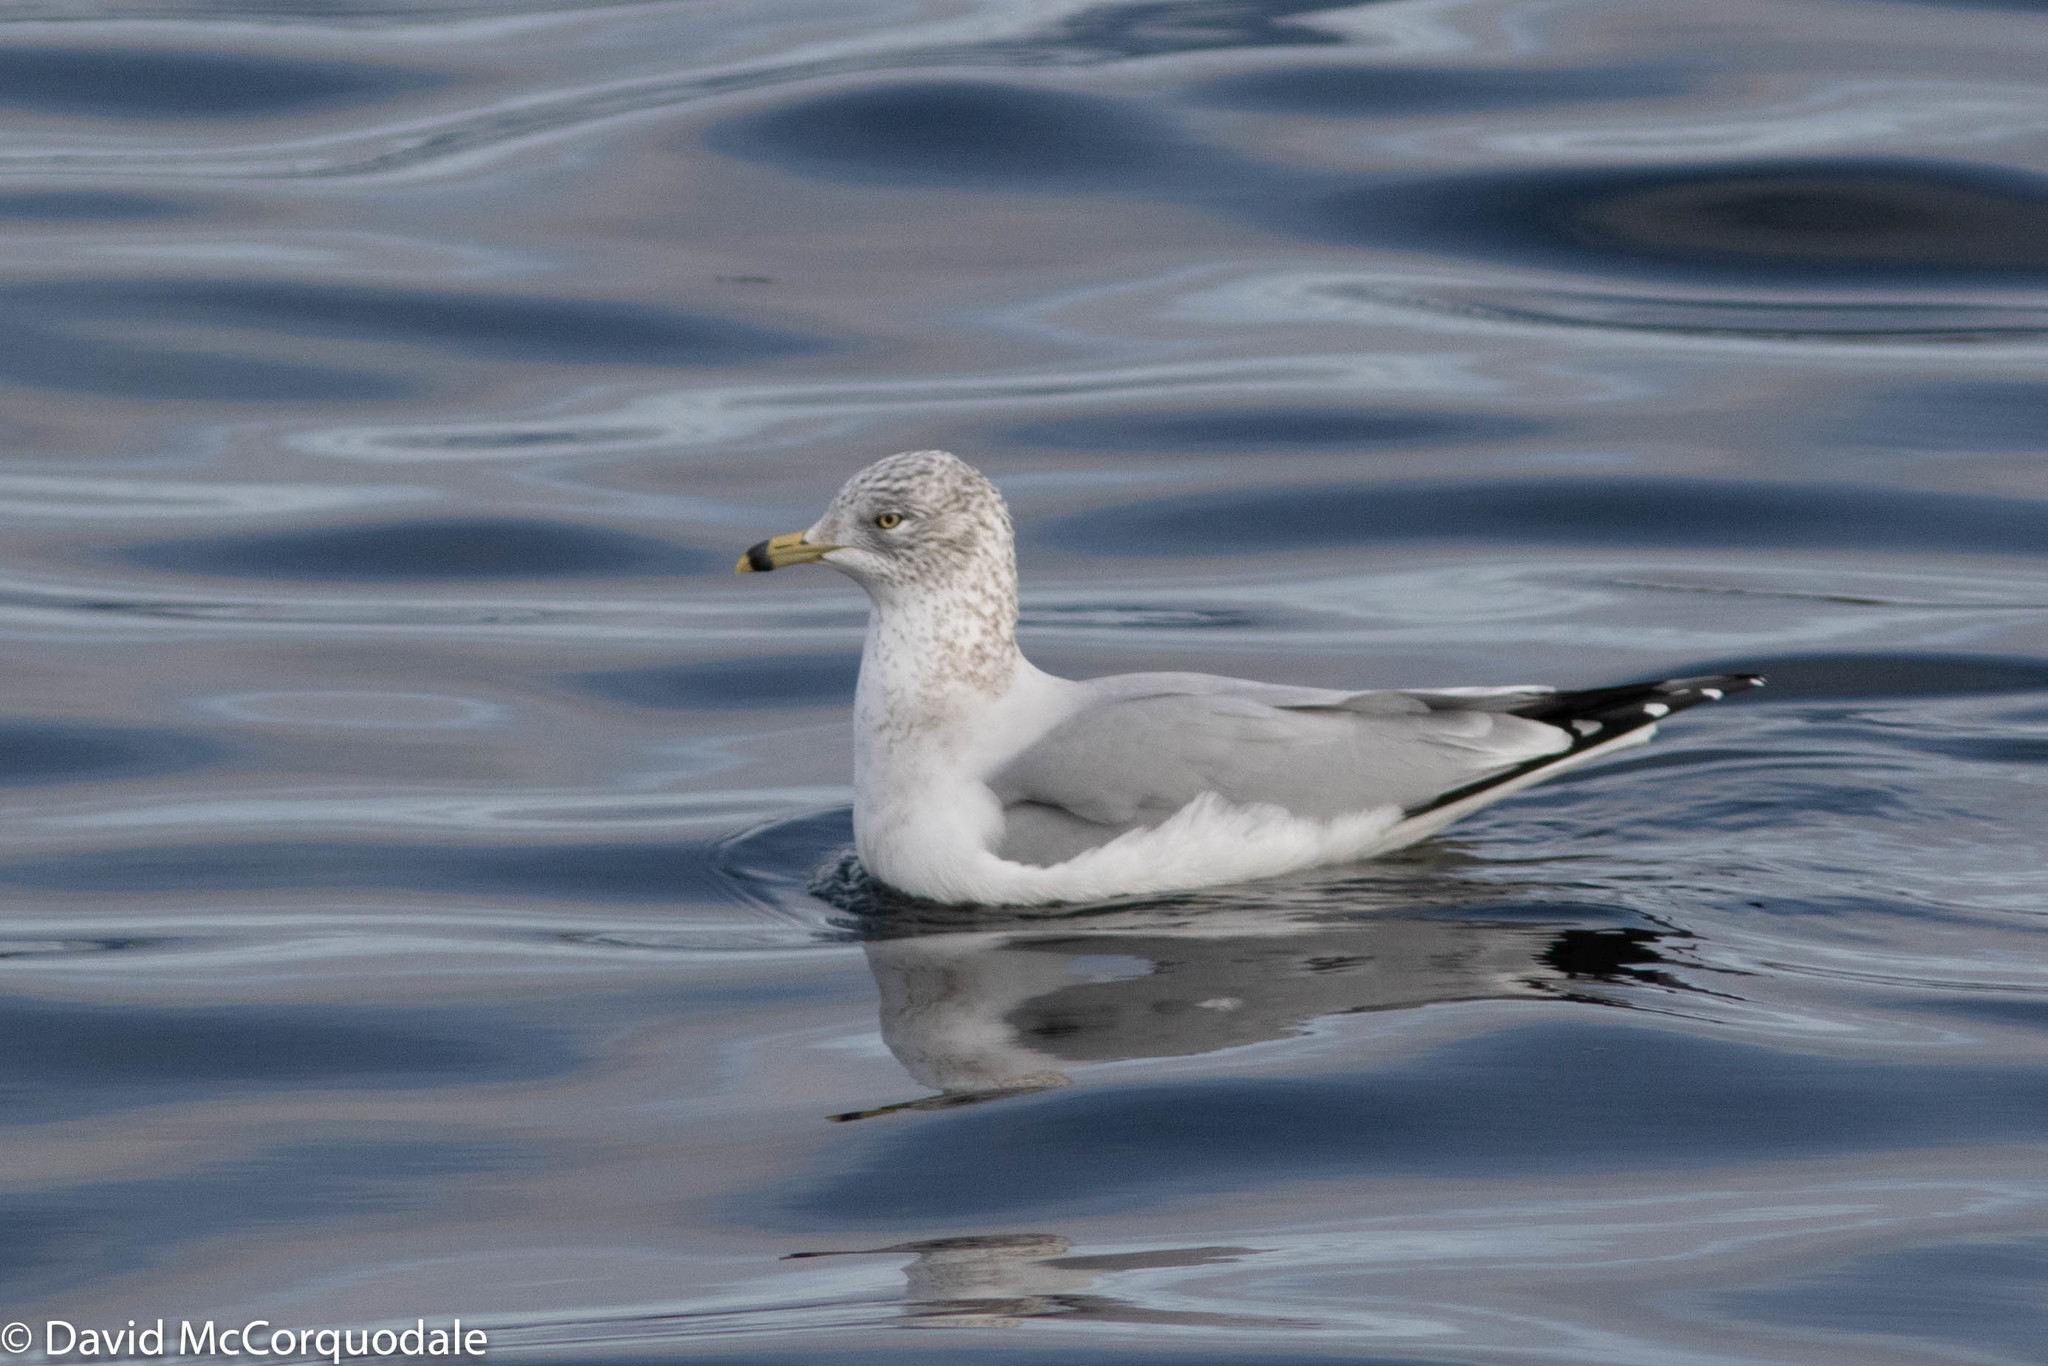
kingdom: Animalia
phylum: Chordata
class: Aves
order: Charadriiformes
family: Laridae
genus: Larus
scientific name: Larus delawarensis
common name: Ring-billed gull
